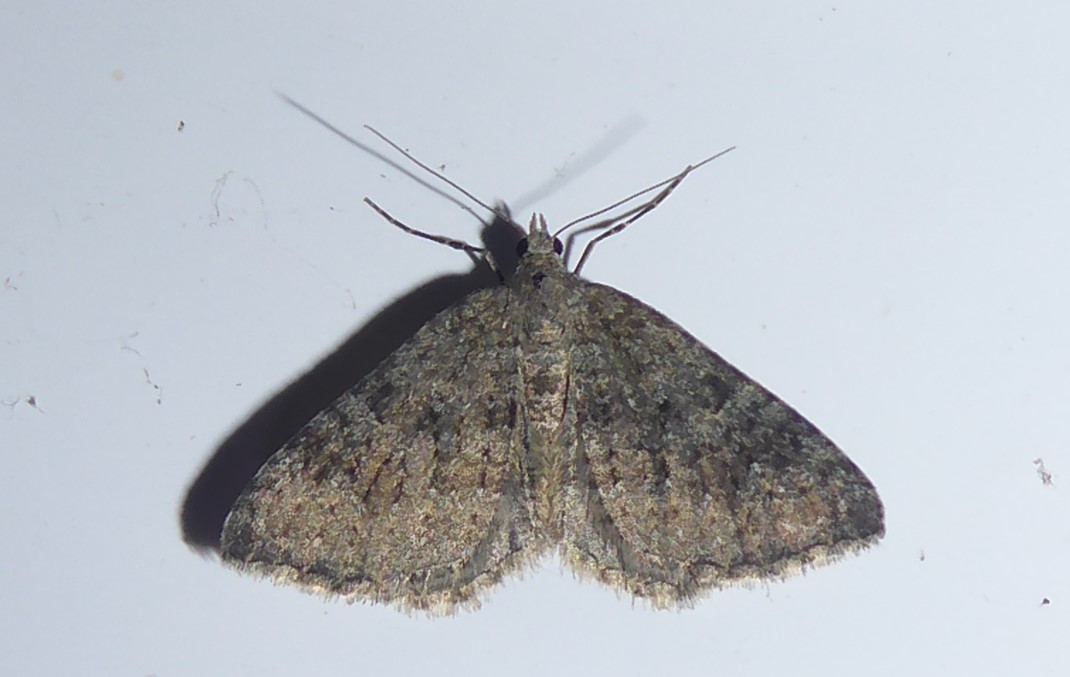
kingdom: Animalia
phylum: Arthropoda
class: Insecta
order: Lepidoptera
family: Geometridae
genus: Helastia
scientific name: Helastia corcularia
